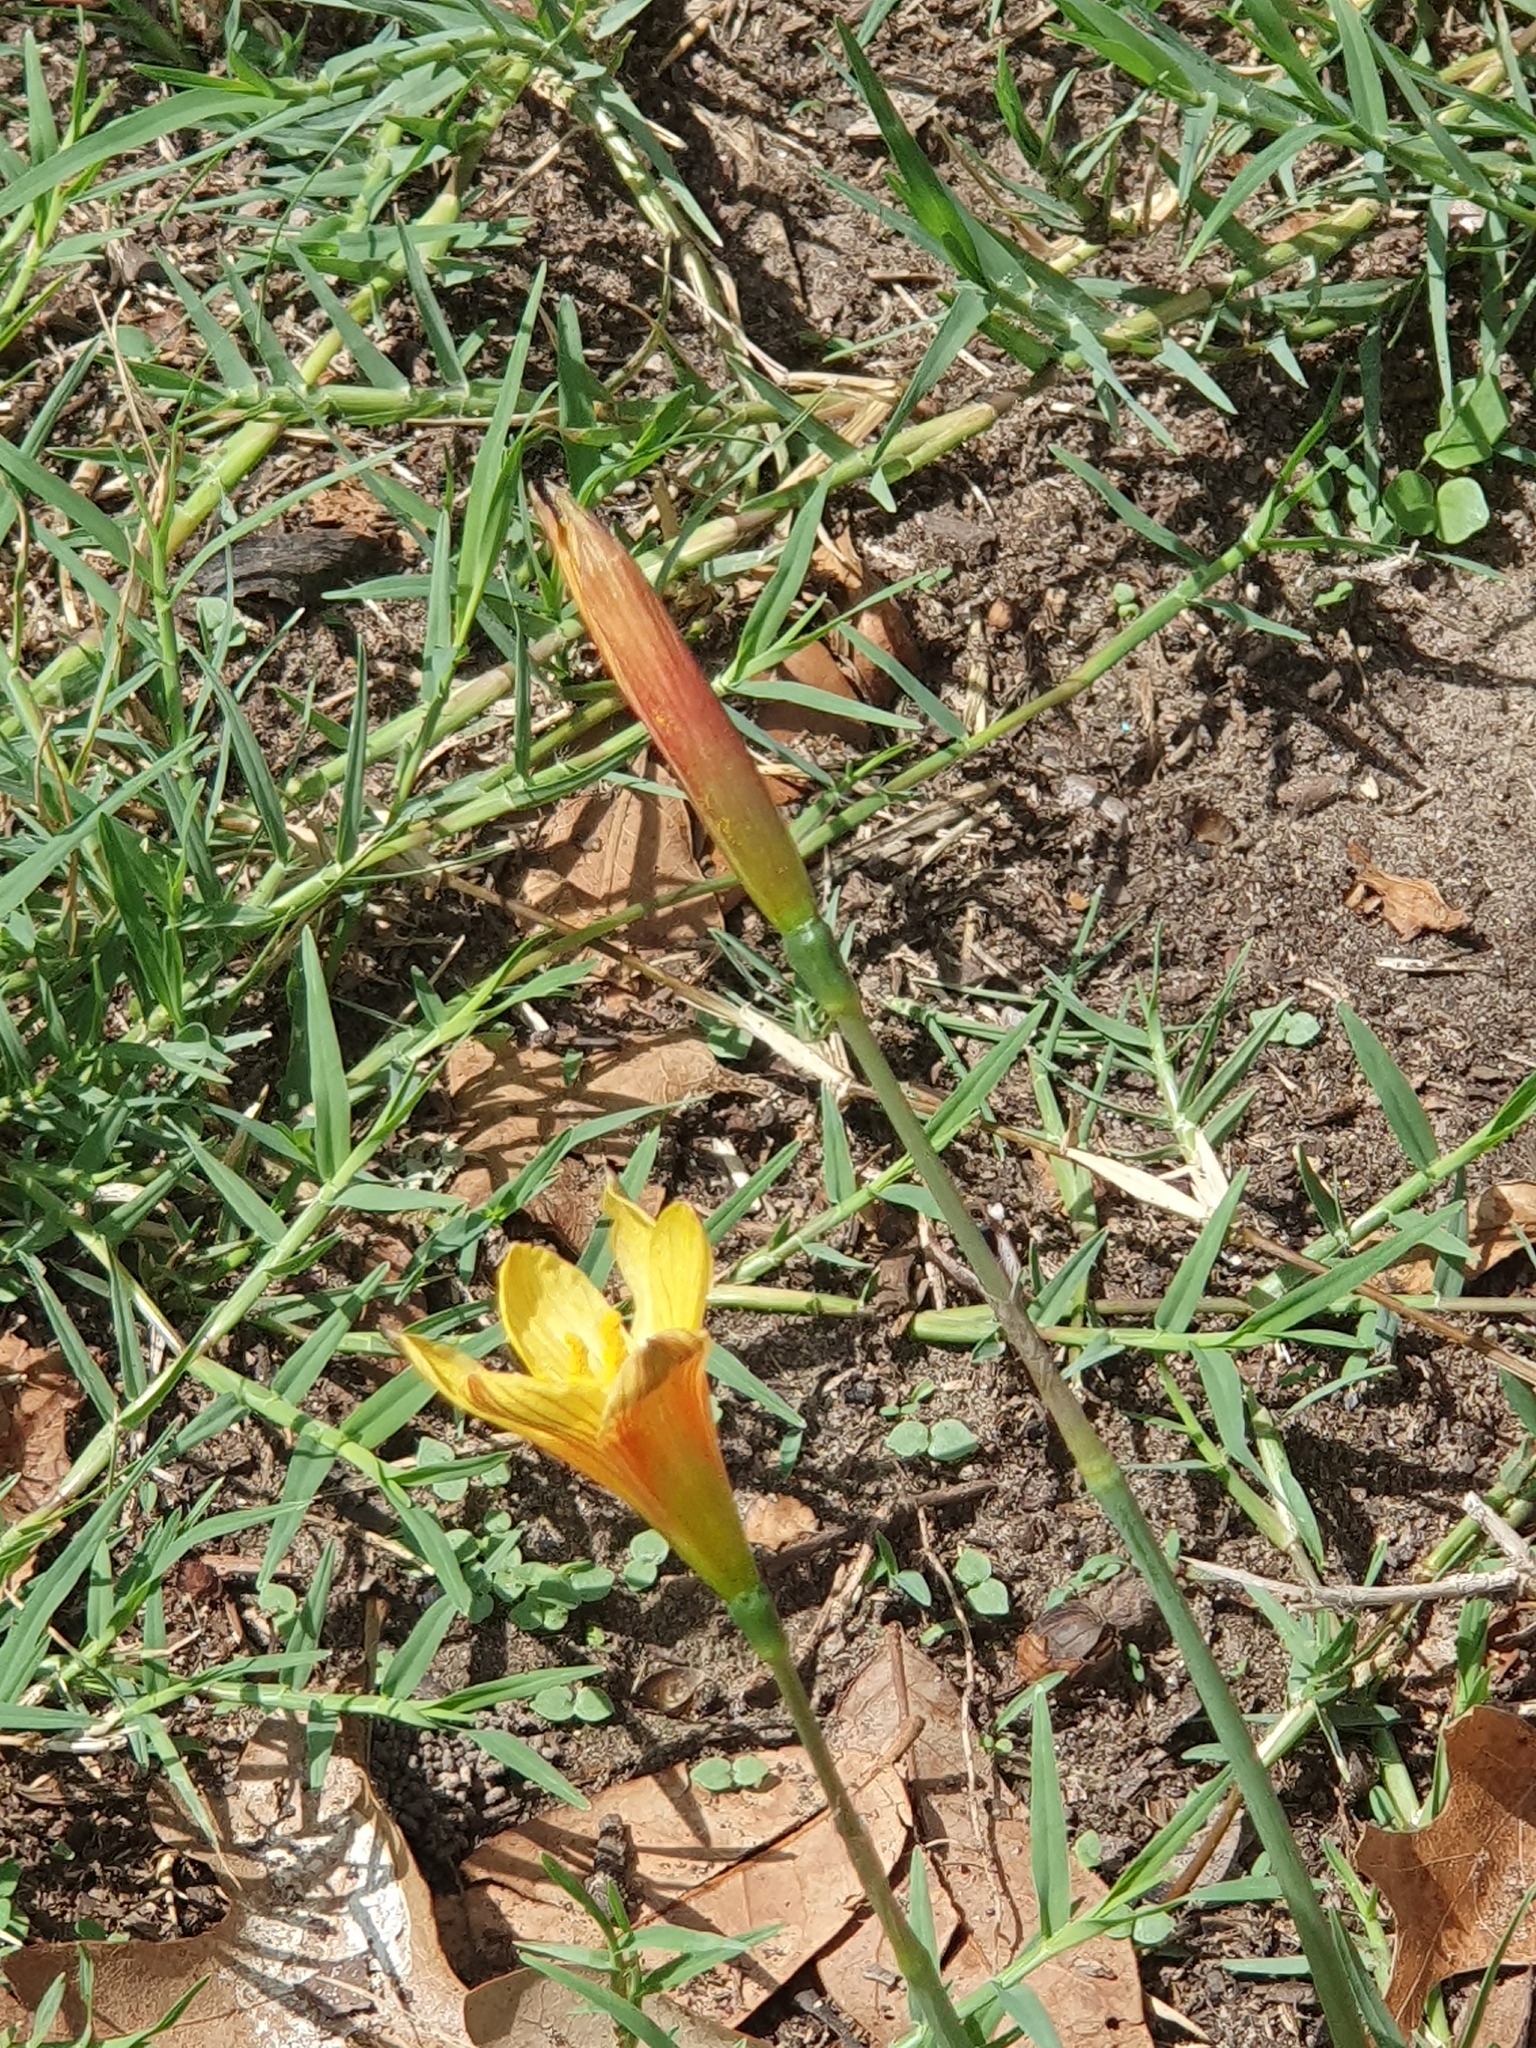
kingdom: Plantae
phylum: Tracheophyta
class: Liliopsida
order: Asparagales
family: Amaryllidaceae
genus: Zephyranthes
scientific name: Zephyranthes tubispatha
